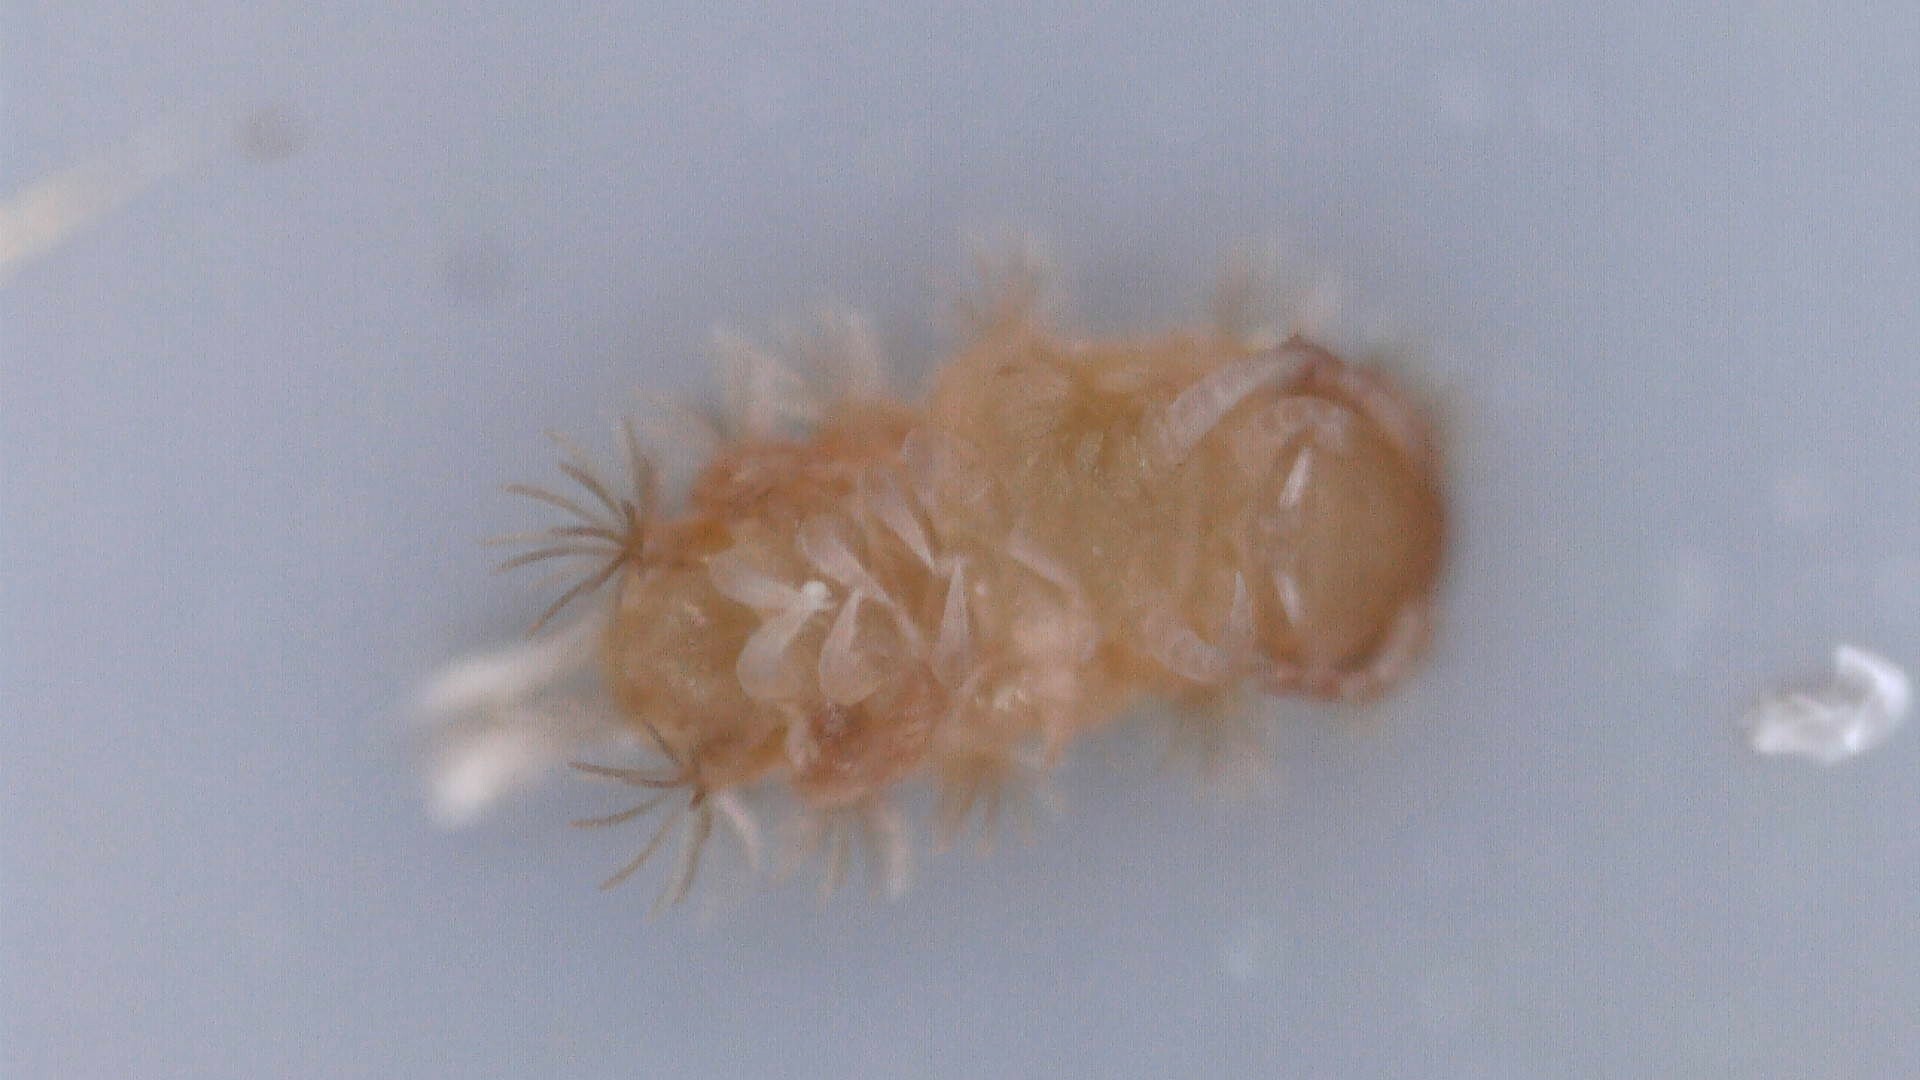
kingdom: Animalia
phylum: Arthropoda
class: Diplopoda
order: Polyxenida
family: Polyxenidae
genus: Polyxenus
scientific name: Polyxenus lagurus
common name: Bristly millipede
